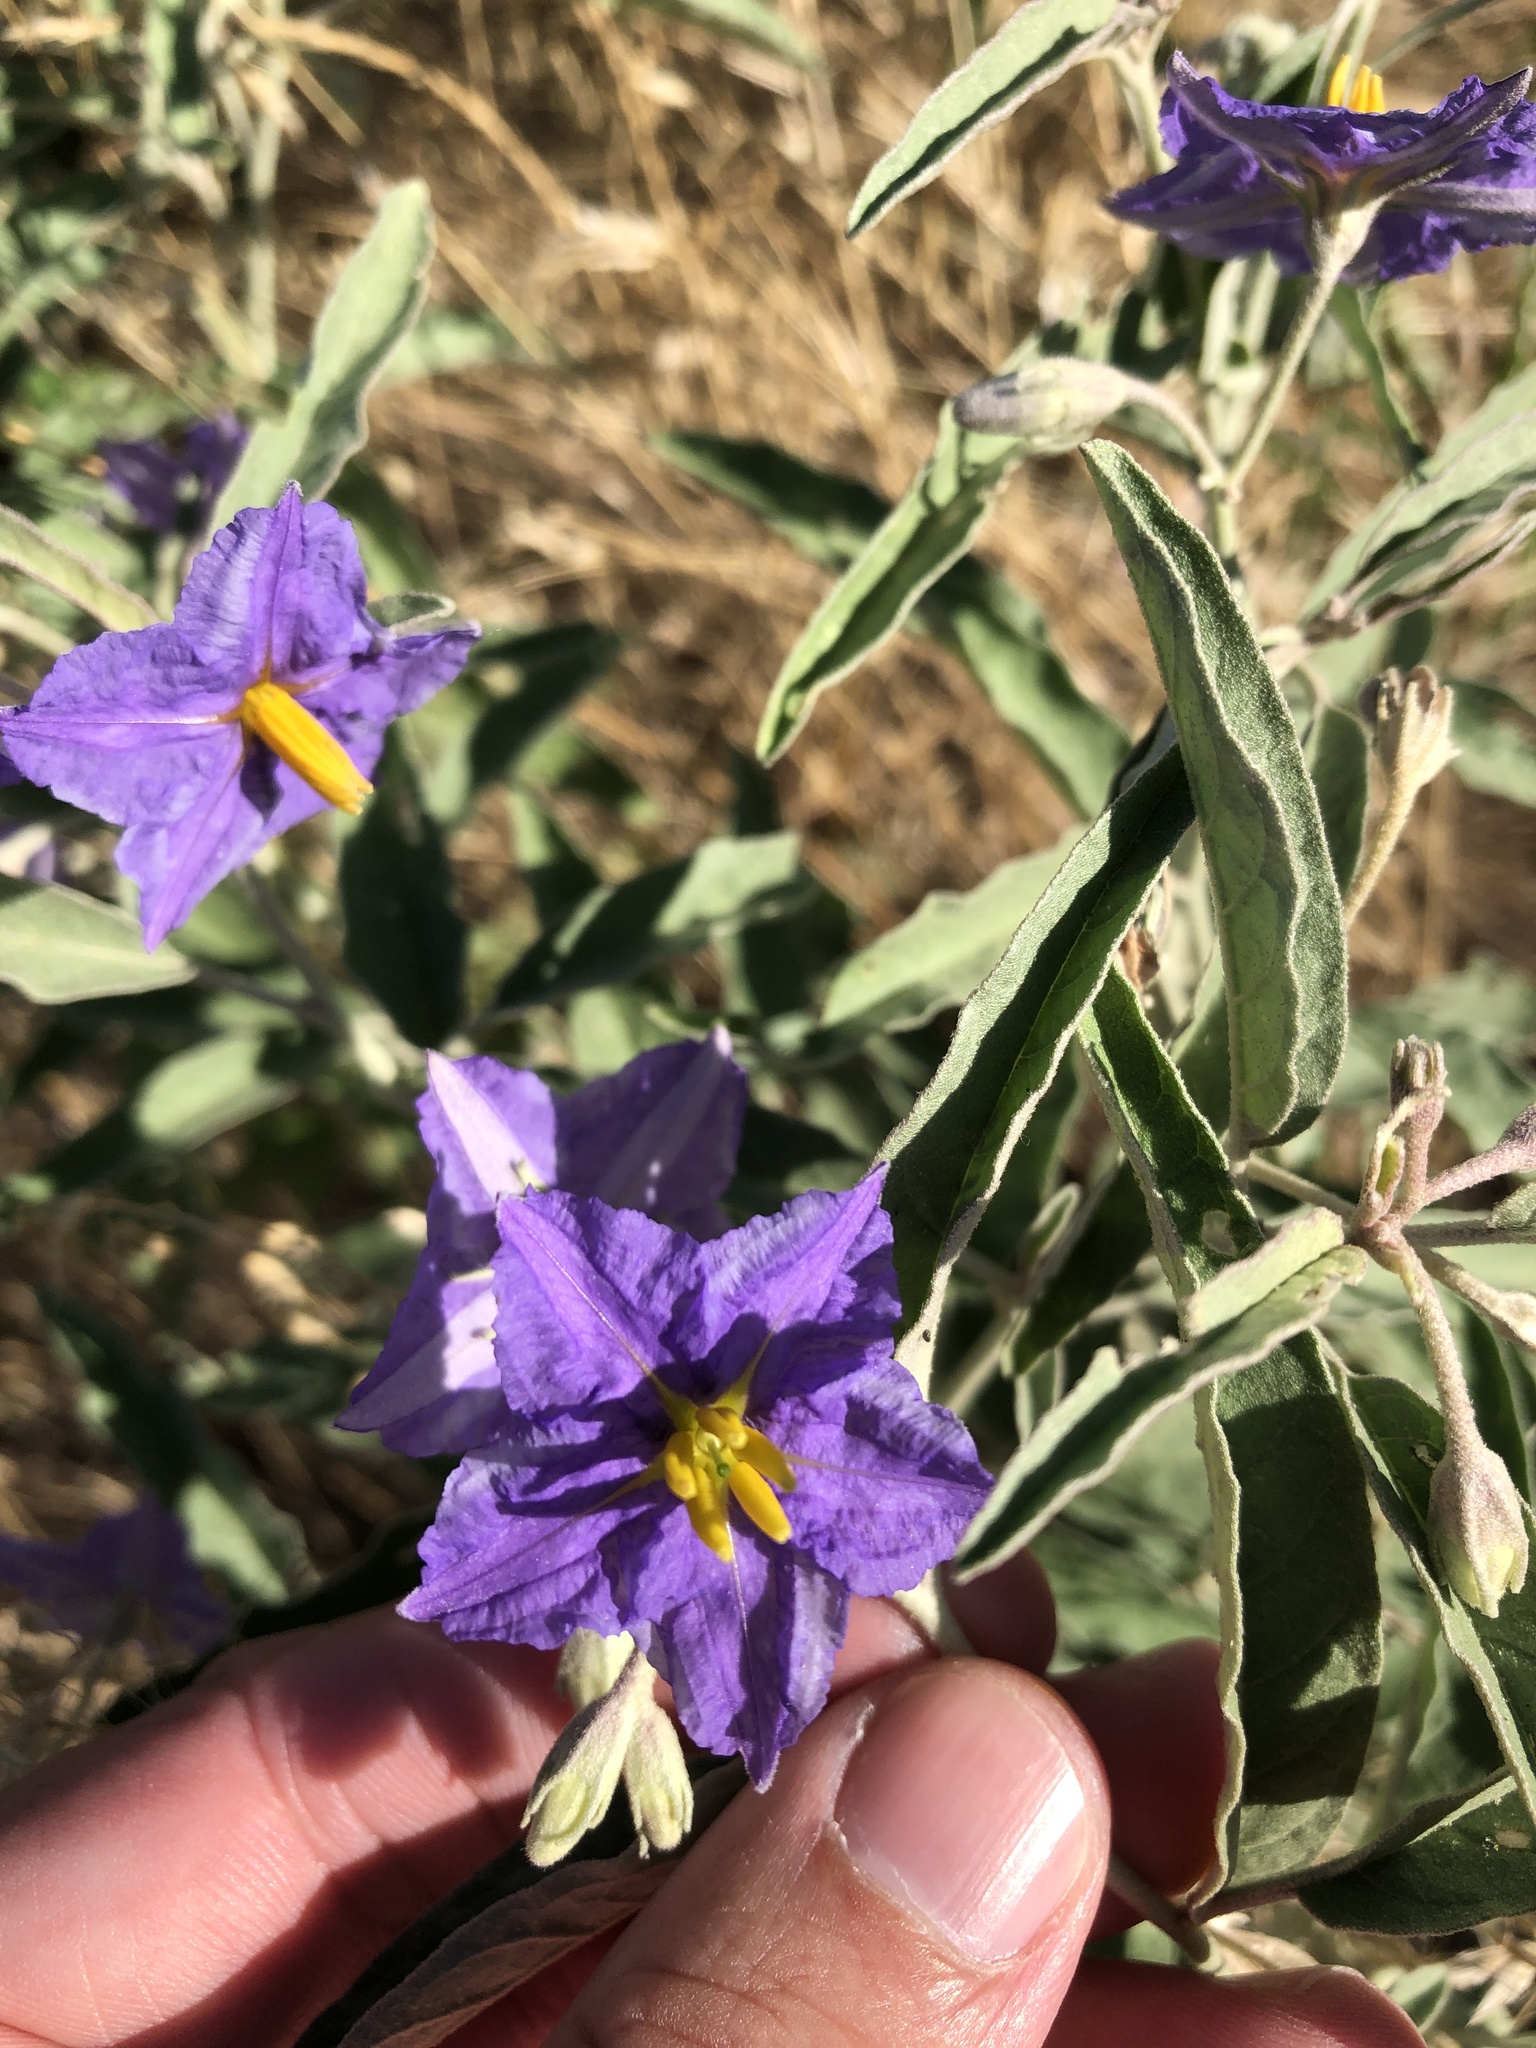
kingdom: Plantae
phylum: Tracheophyta
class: Magnoliopsida
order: Solanales
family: Solanaceae
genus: Solanum
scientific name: Solanum elaeagnifolium
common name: Silverleaf nightshade
